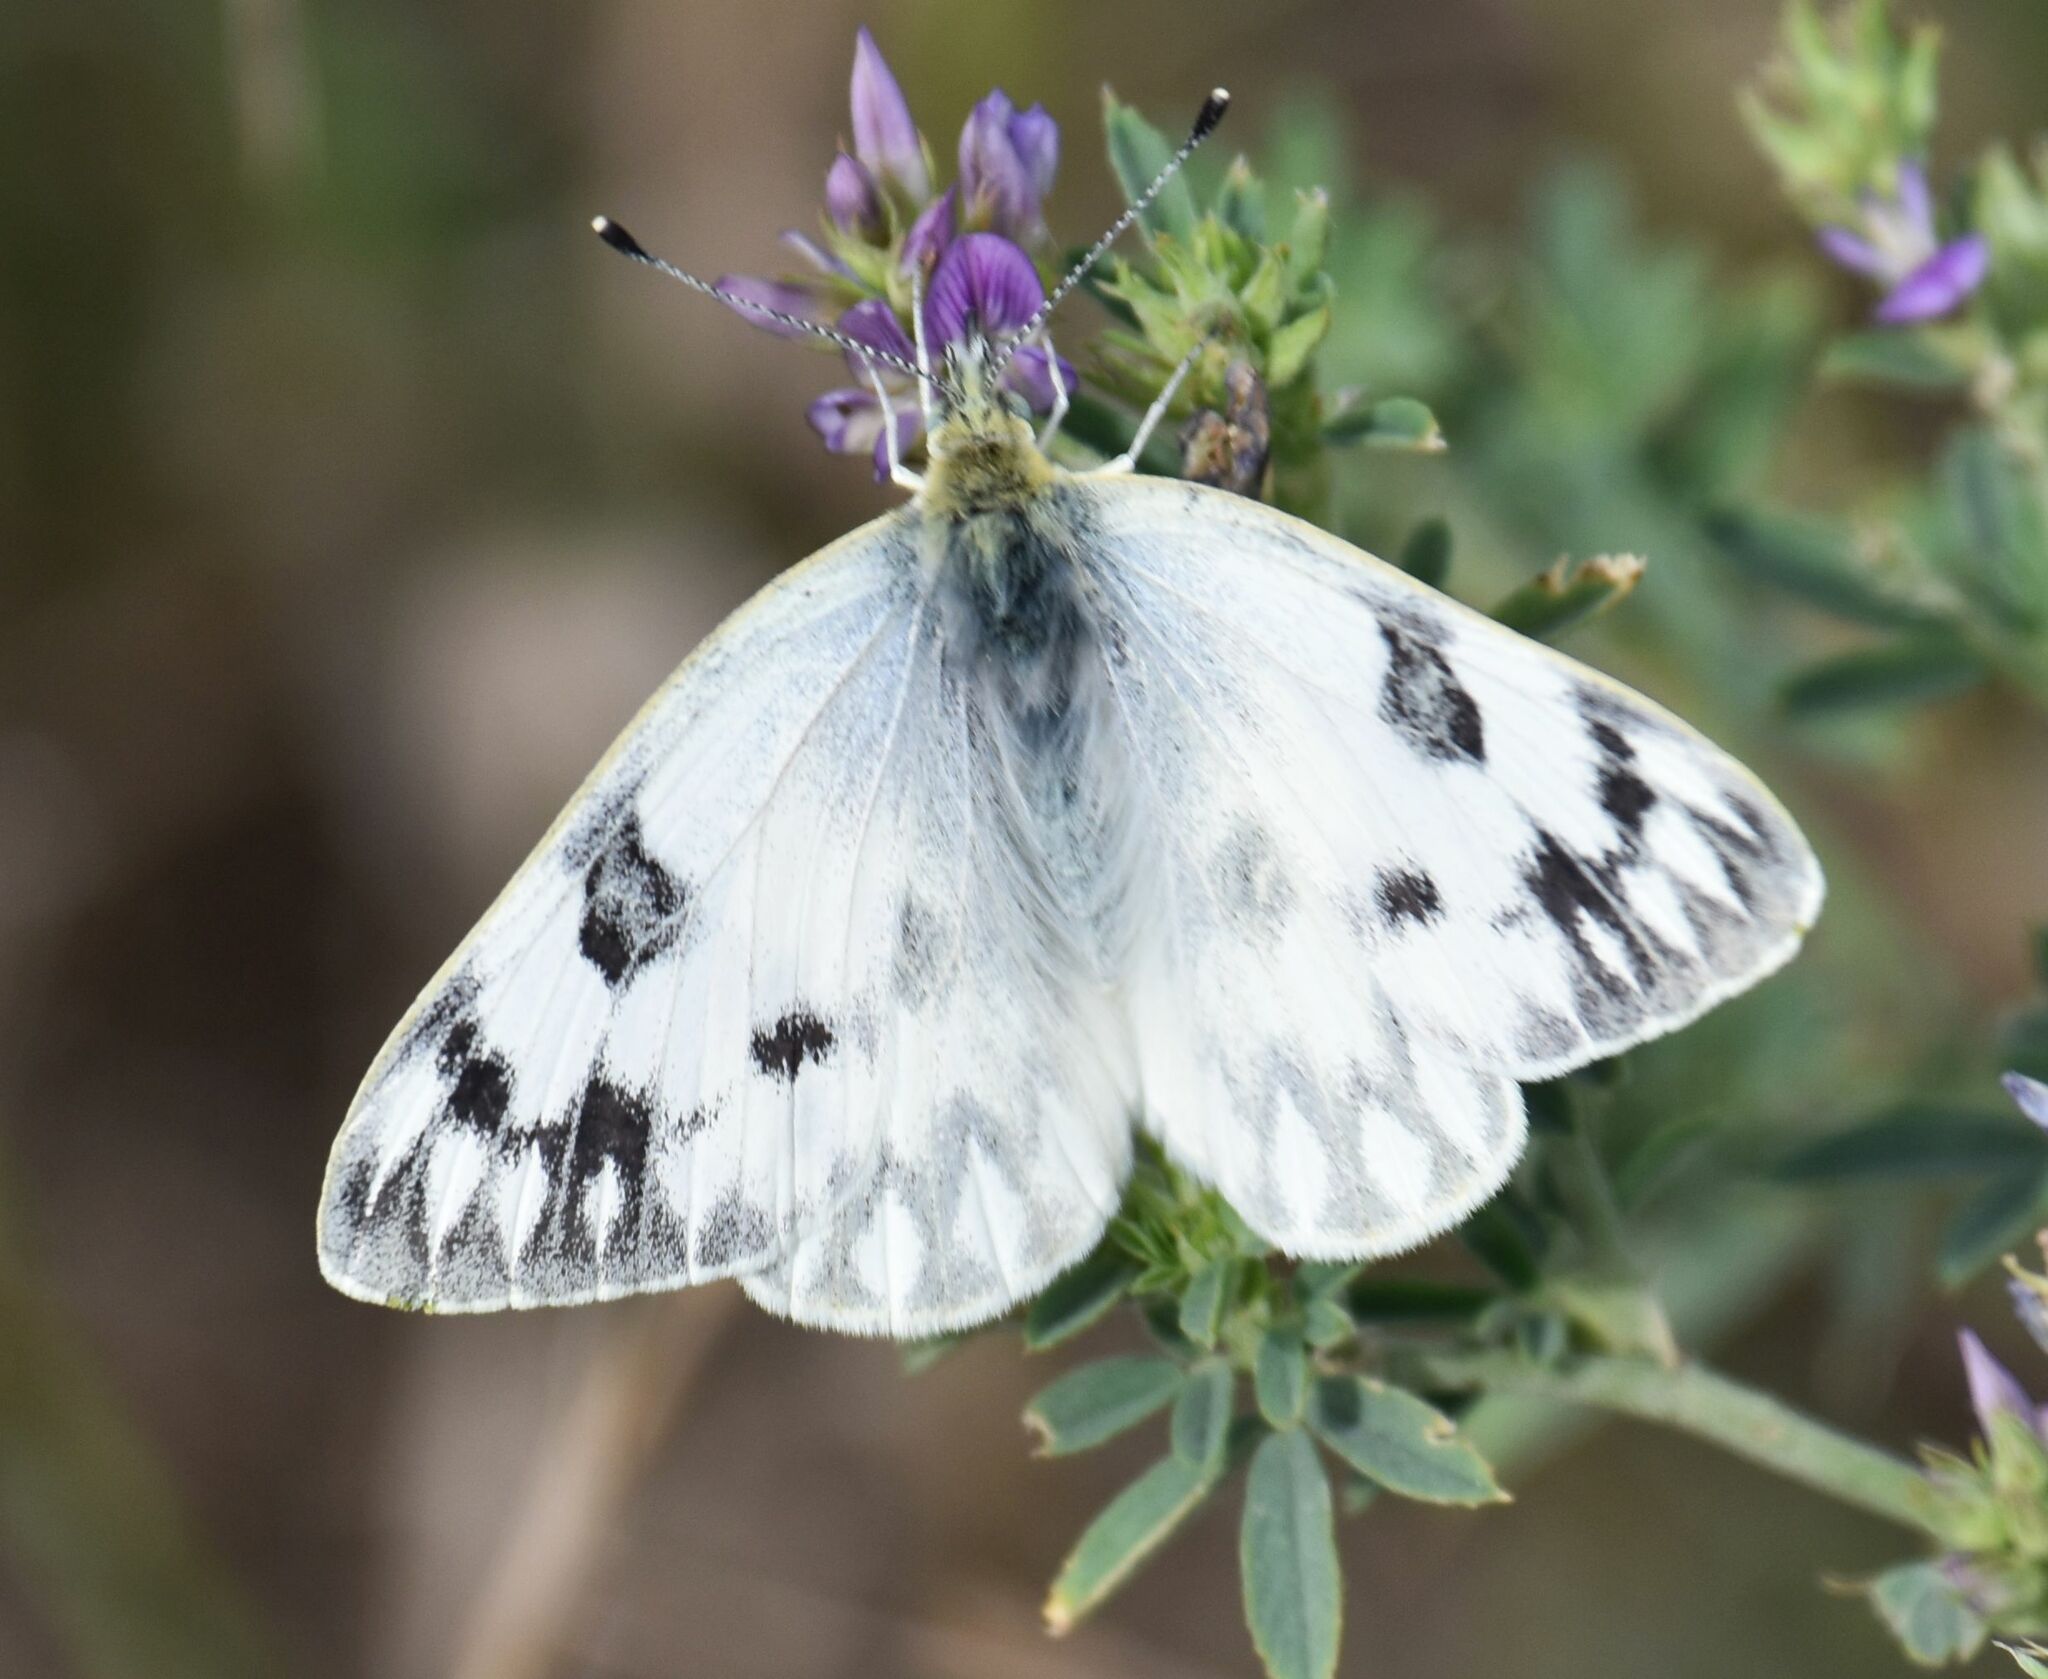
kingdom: Animalia
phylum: Arthropoda
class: Insecta
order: Lepidoptera
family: Pieridae
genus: Pontia
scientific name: Pontia occidentalis
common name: Western white
